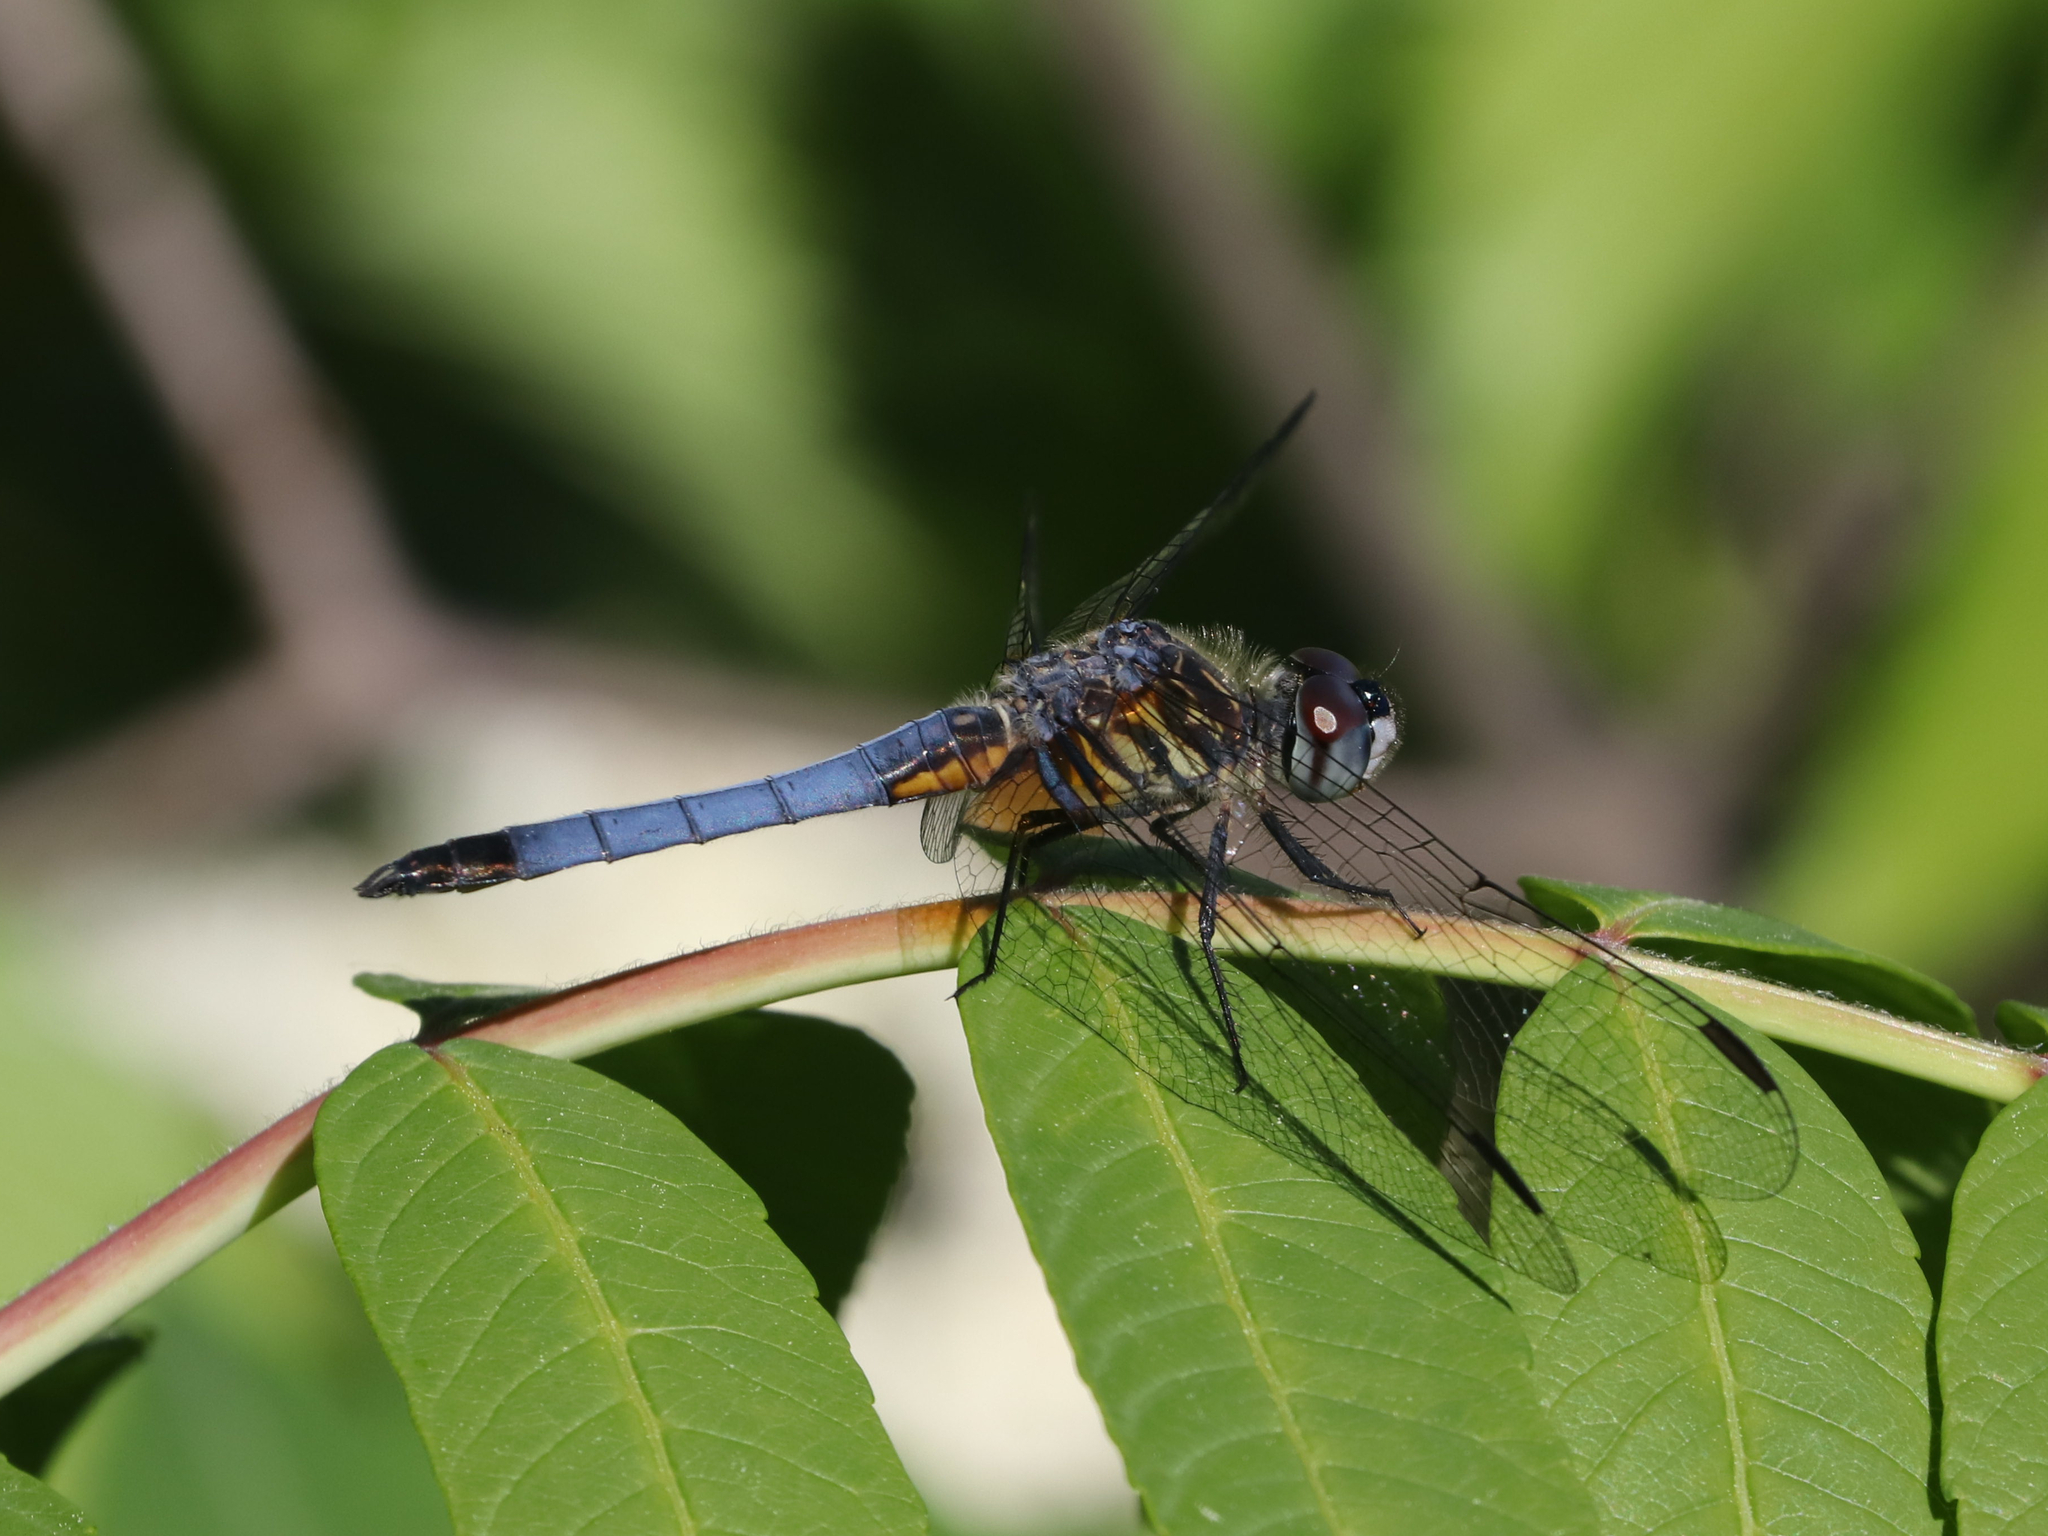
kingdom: Animalia
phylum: Arthropoda
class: Insecta
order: Odonata
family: Libellulidae
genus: Pachydiplax
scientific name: Pachydiplax longipennis
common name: Blue dasher
